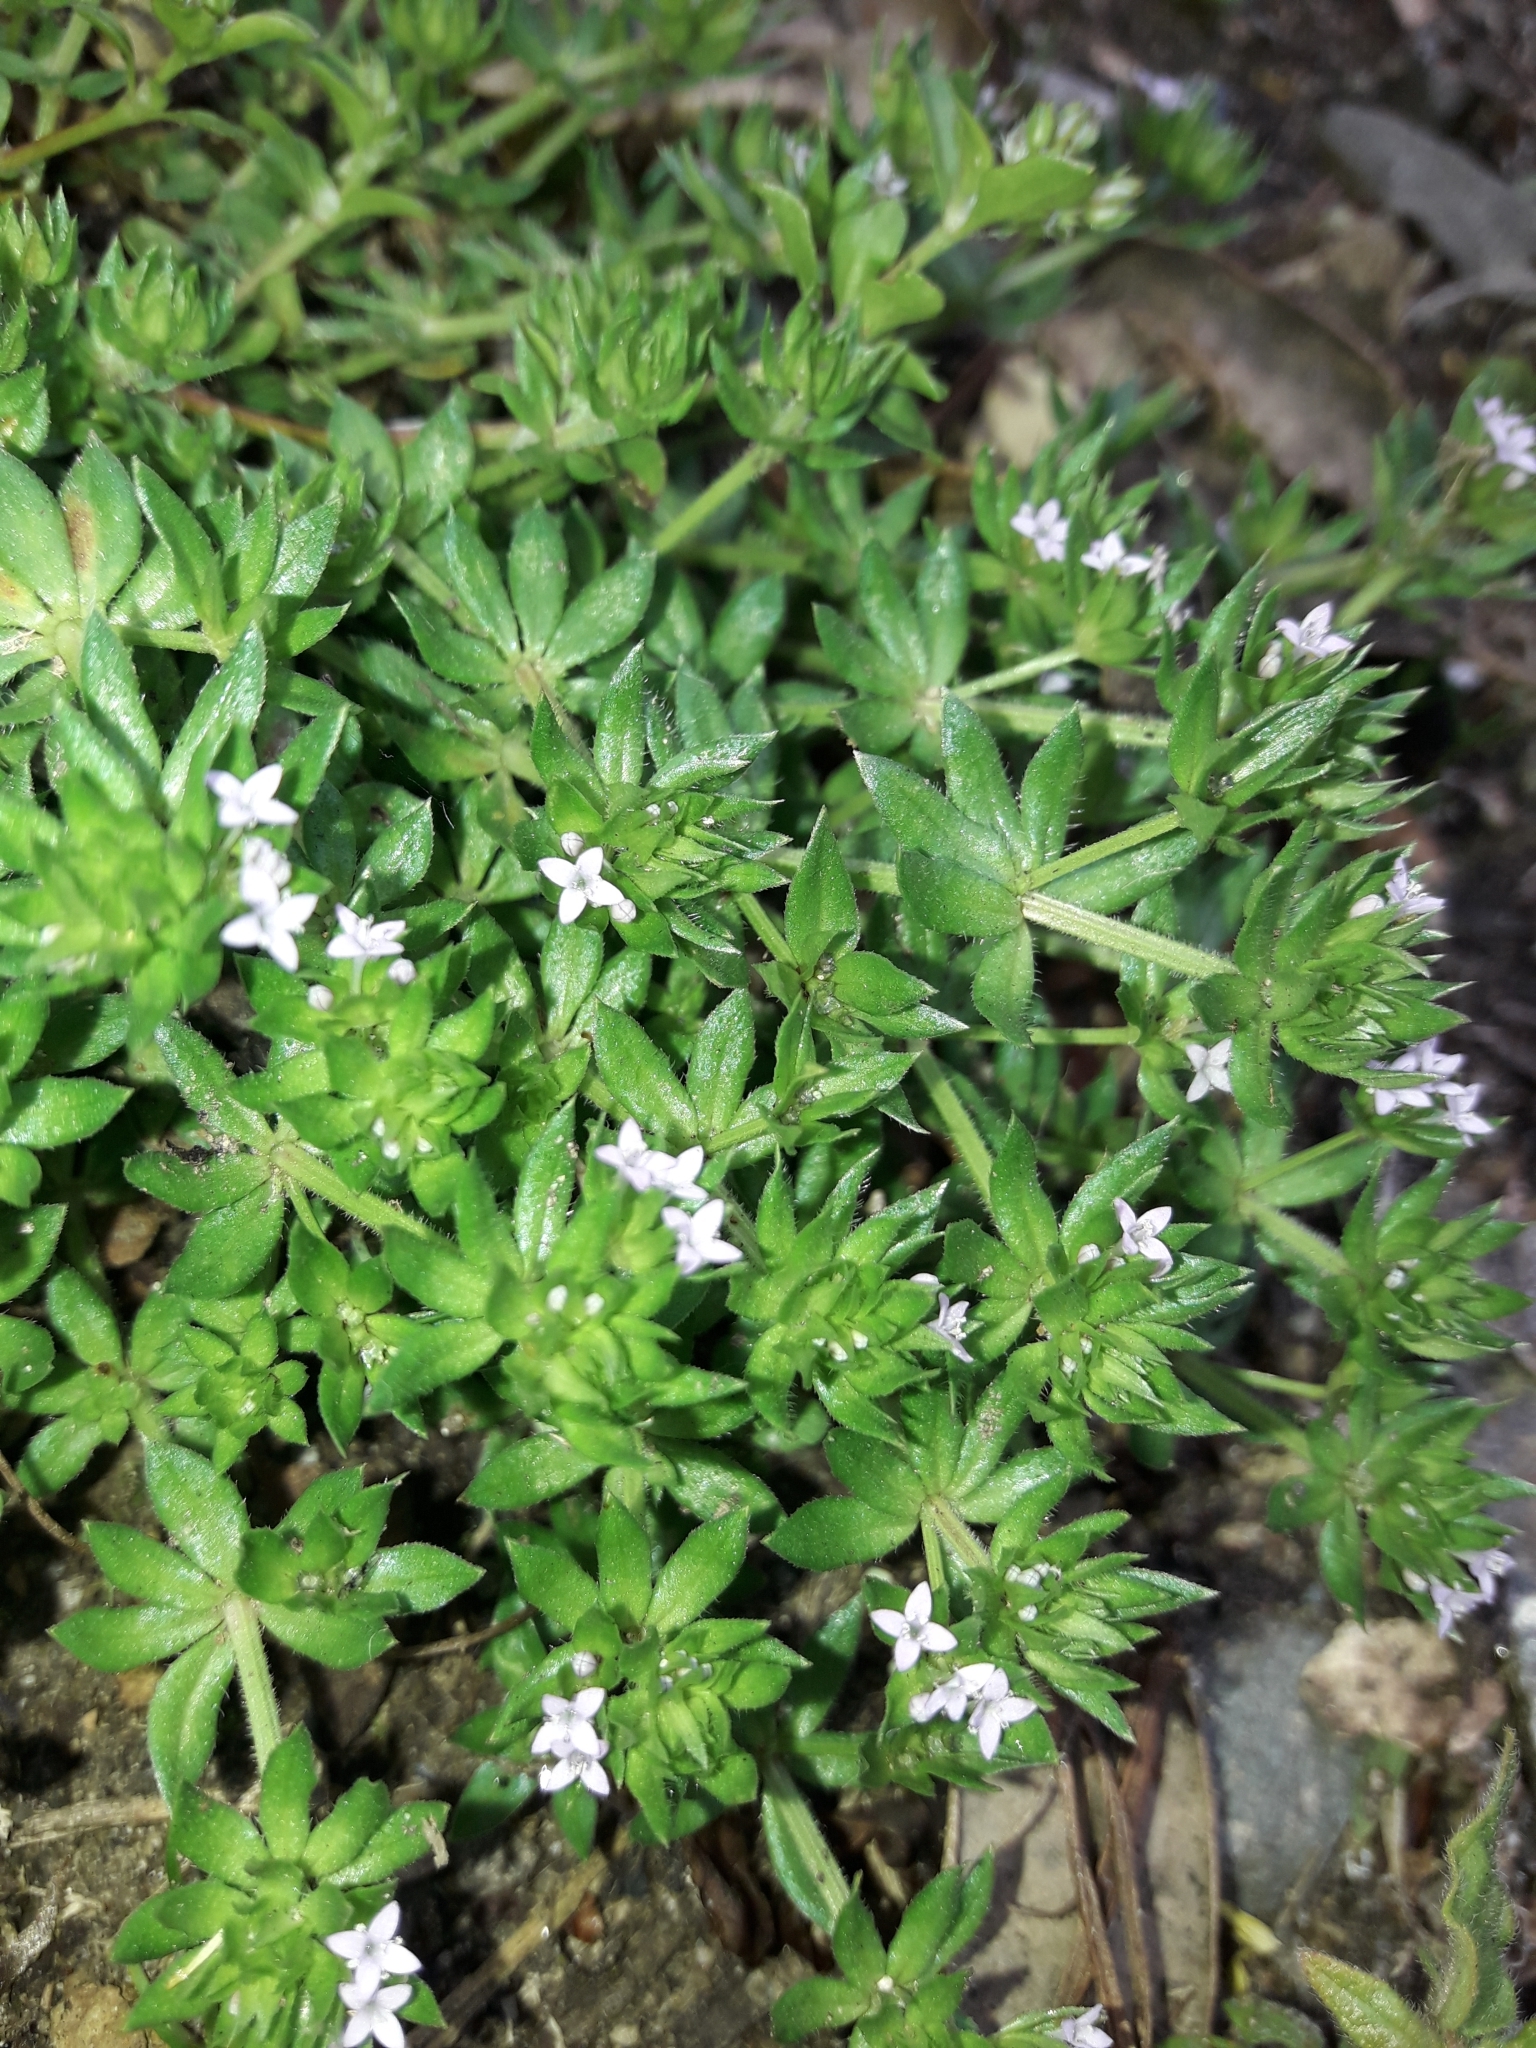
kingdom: Plantae
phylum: Tracheophyta
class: Magnoliopsida
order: Gentianales
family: Rubiaceae
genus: Sherardia
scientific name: Sherardia arvensis
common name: Field madder
